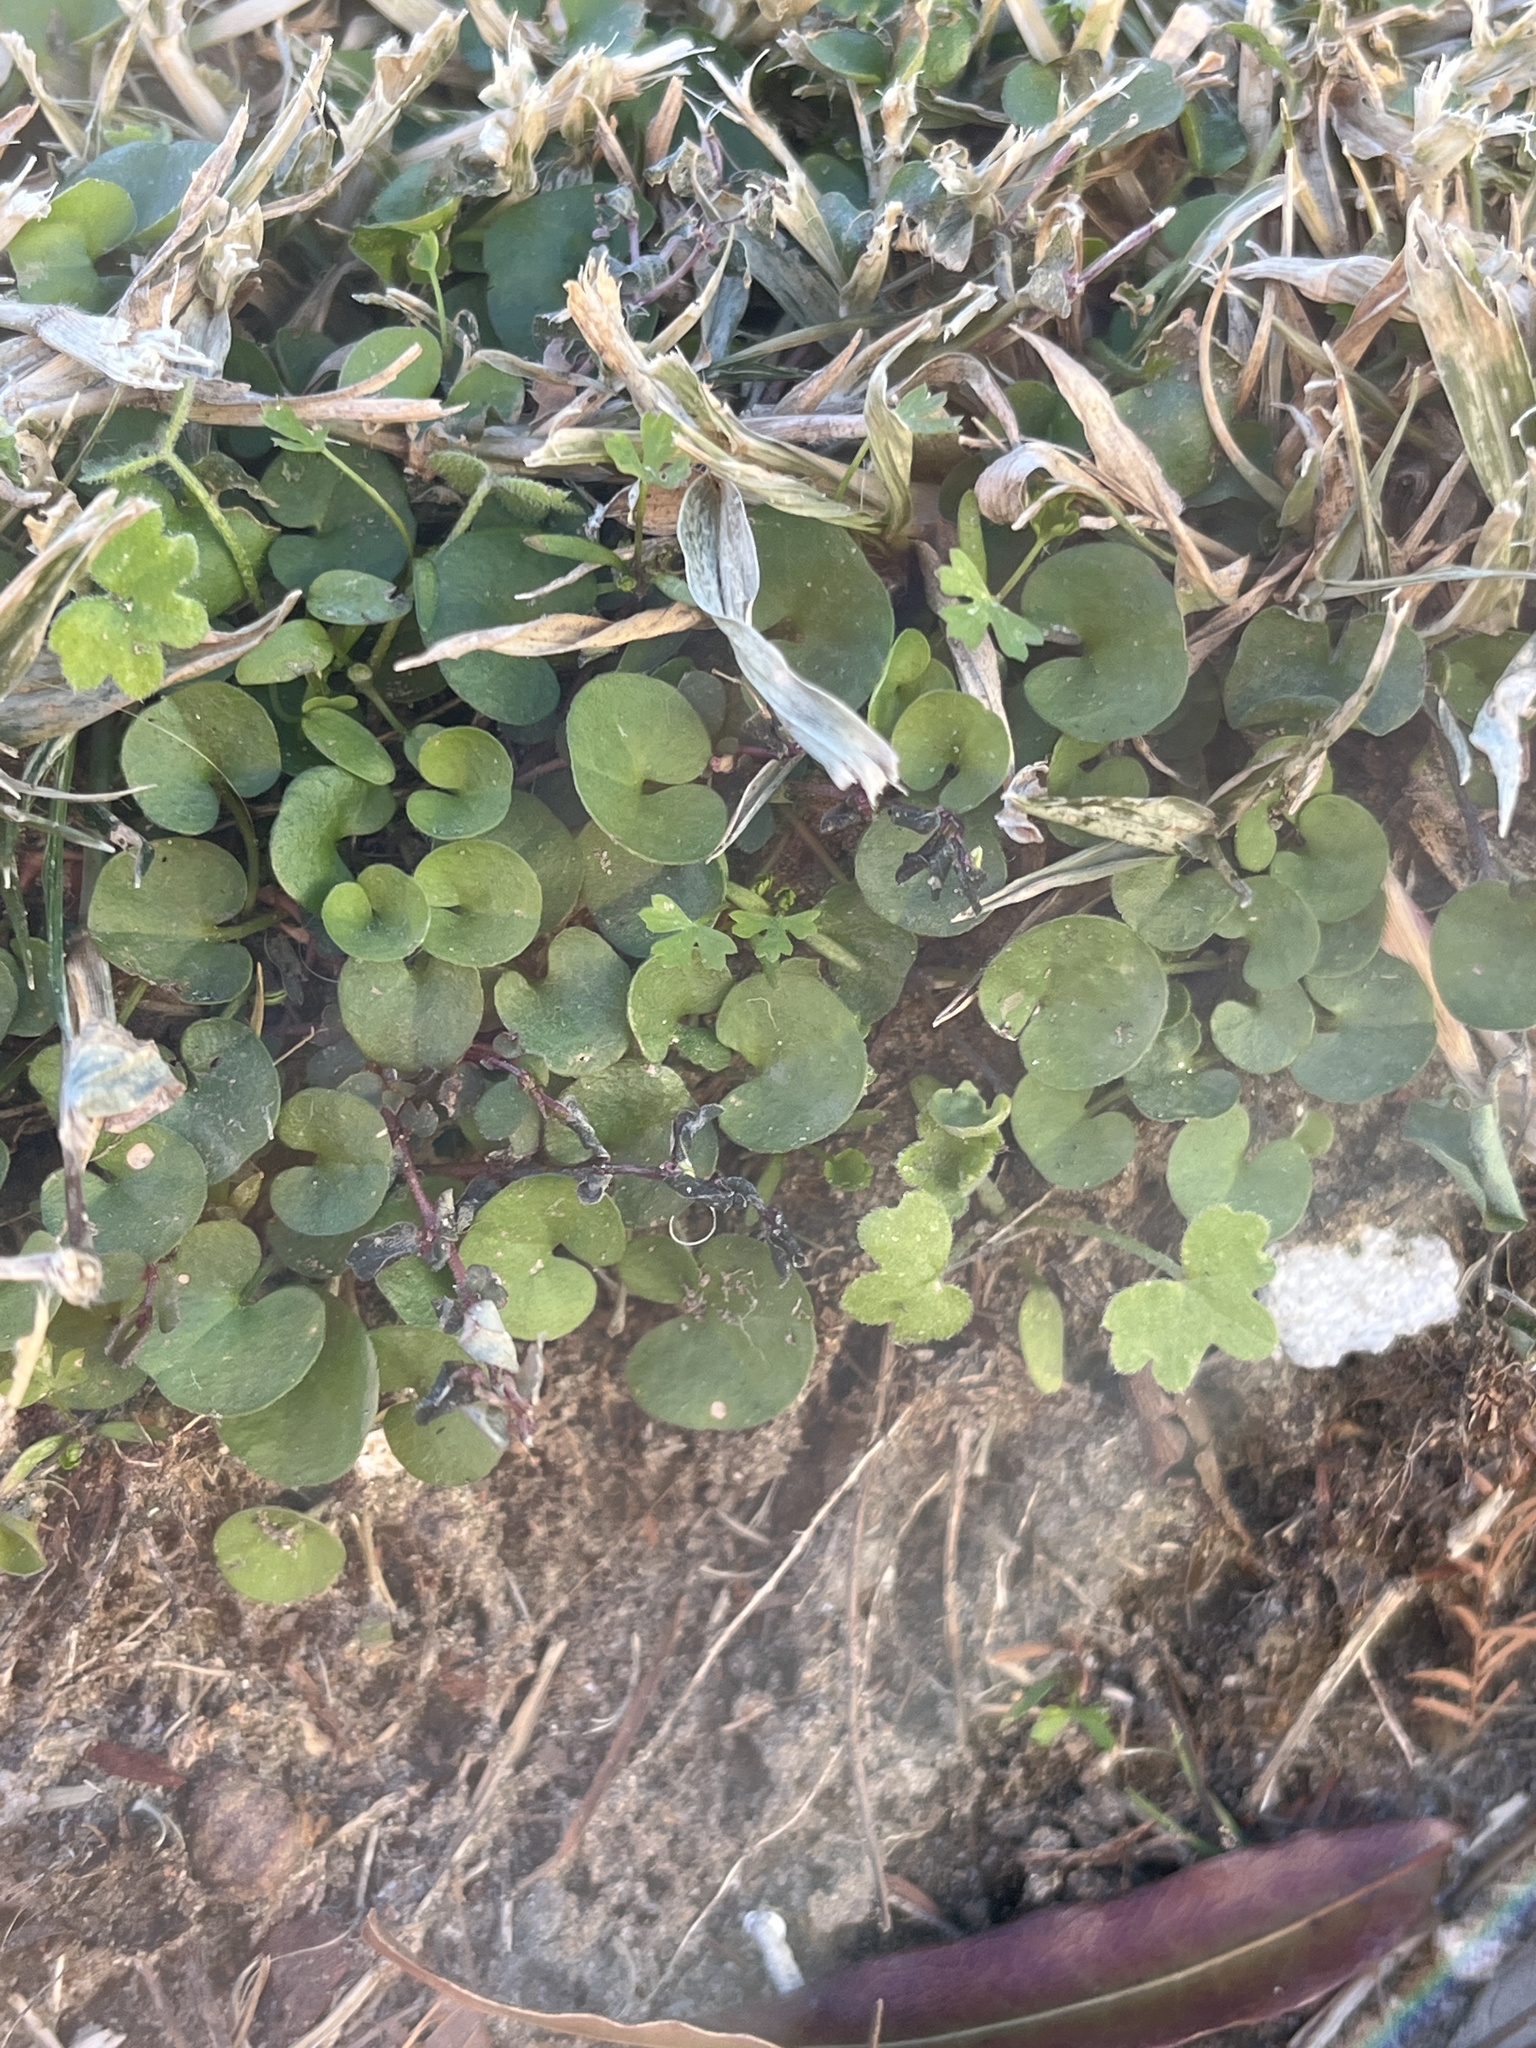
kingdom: Plantae
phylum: Tracheophyta
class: Magnoliopsida
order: Solanales
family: Convolvulaceae
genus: Dichondra
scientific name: Dichondra carolinensis
